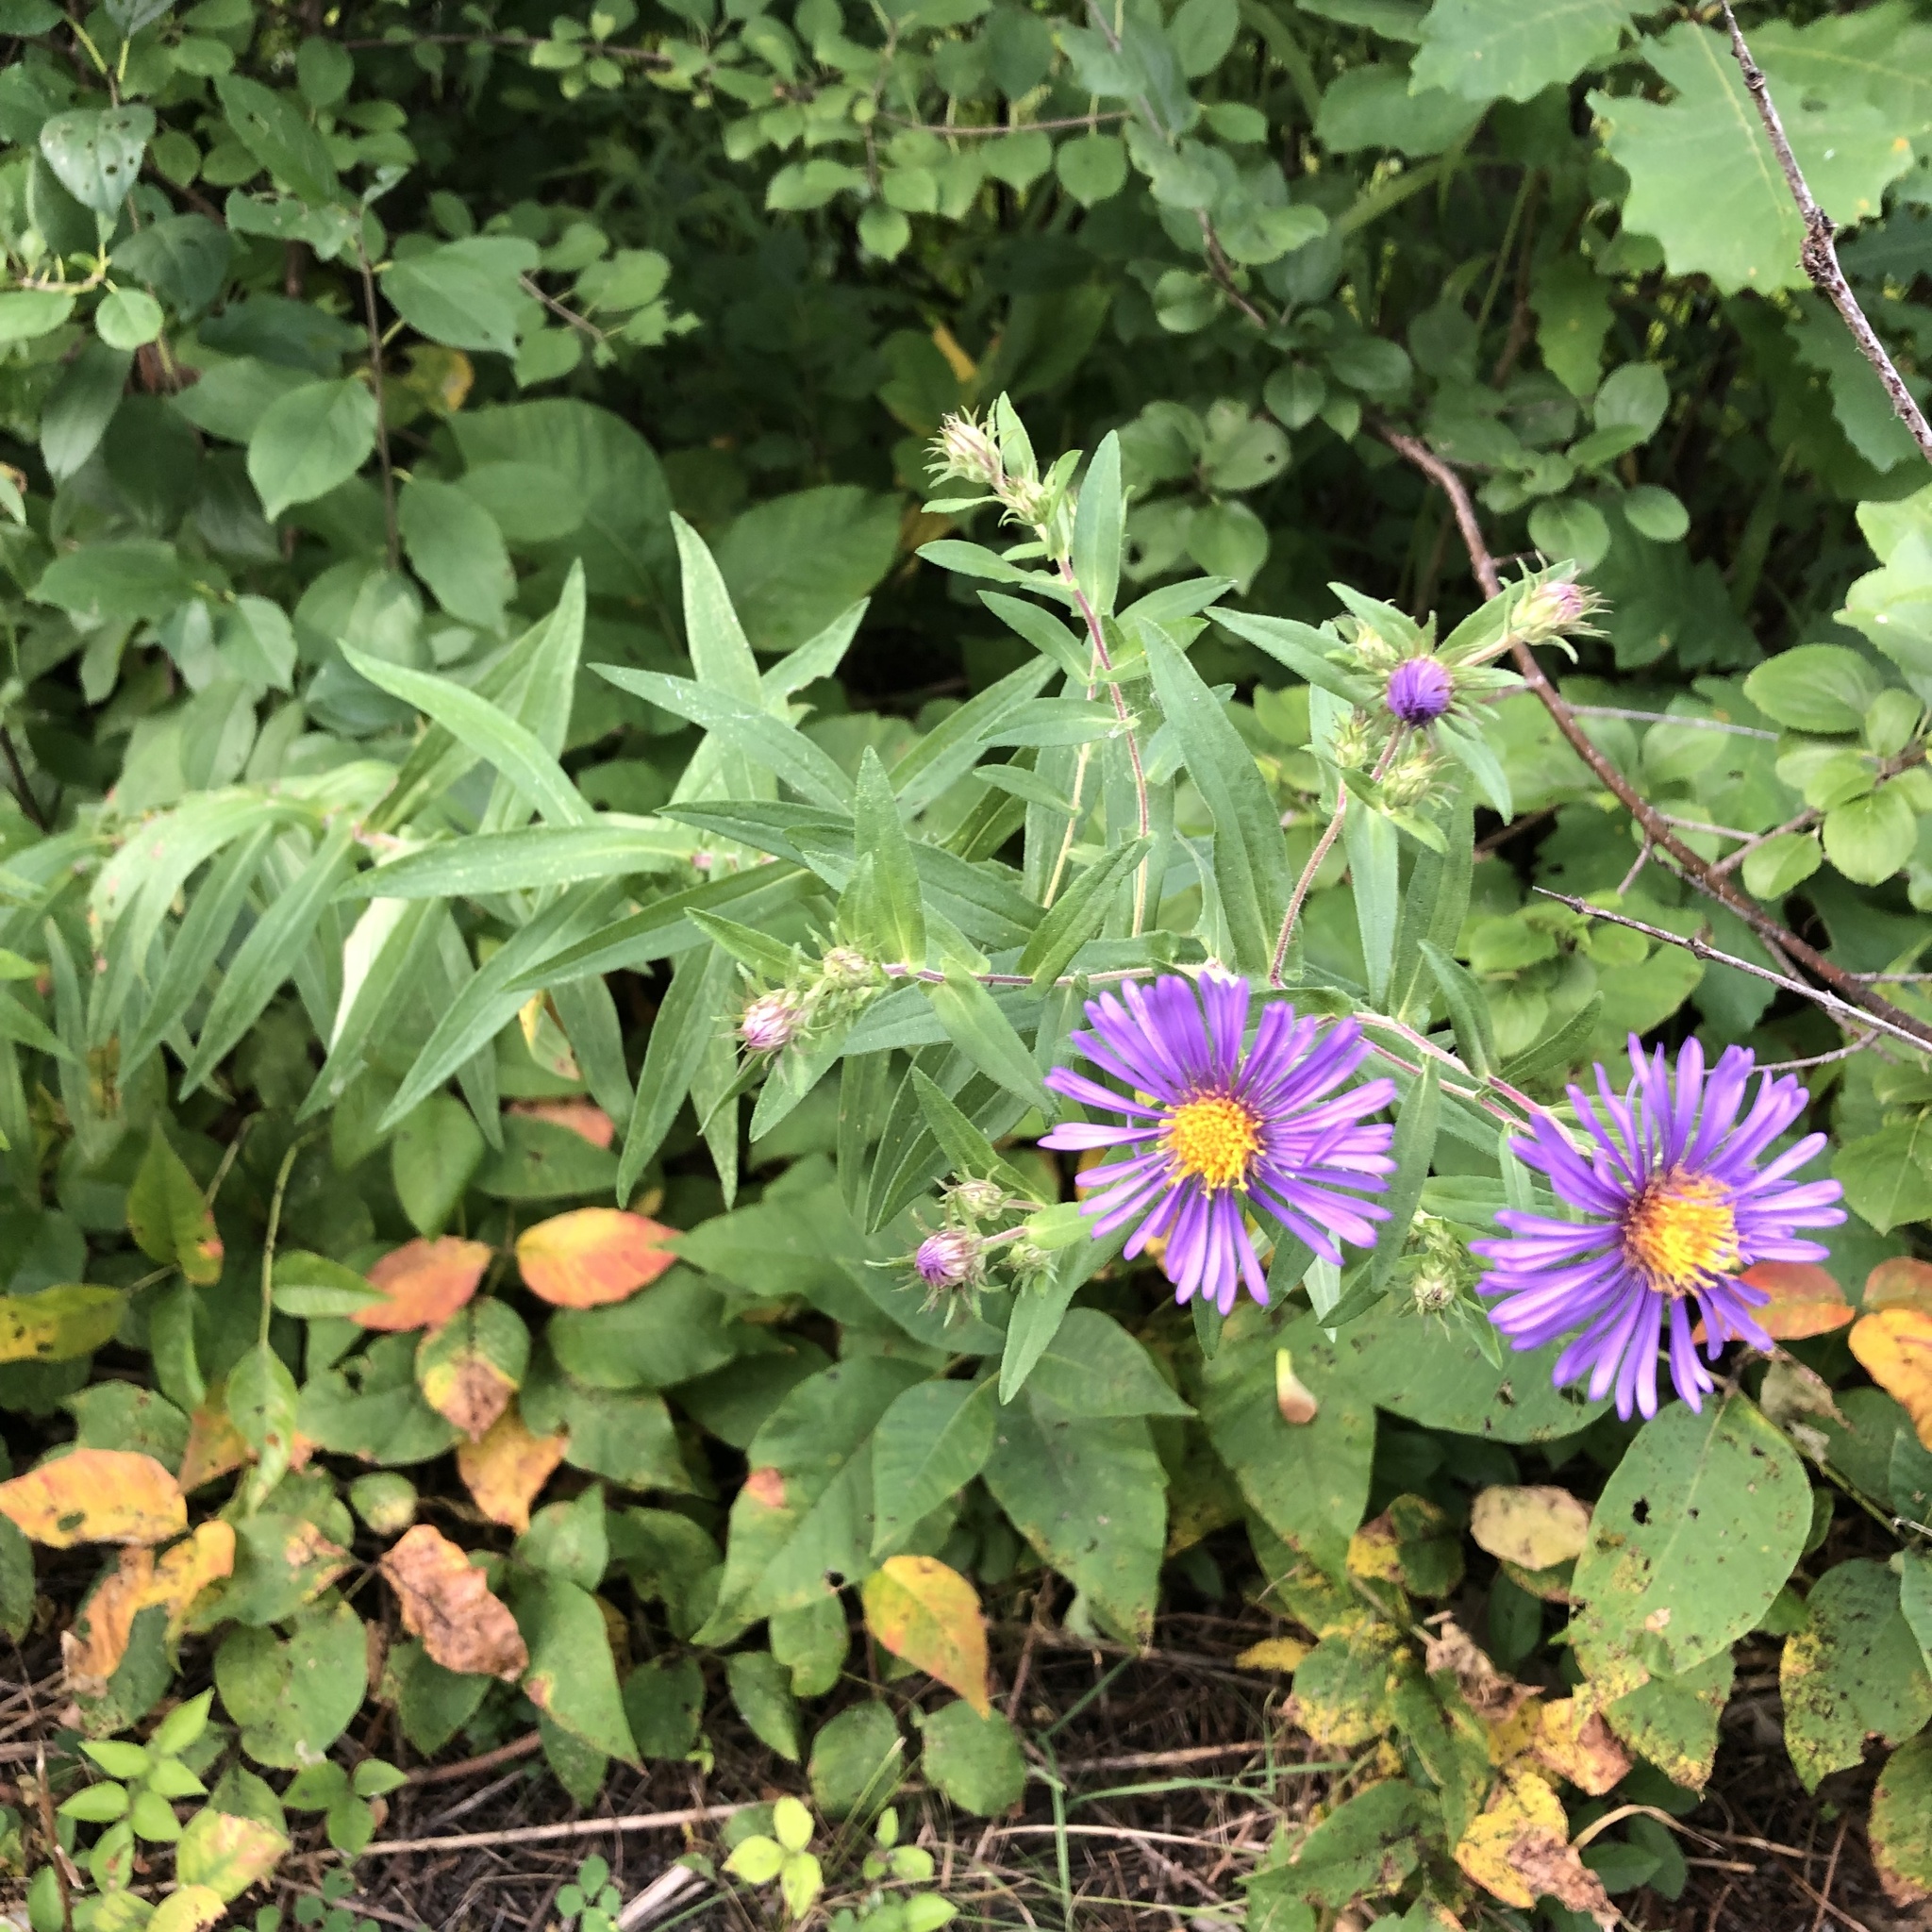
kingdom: Plantae
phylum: Tracheophyta
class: Magnoliopsida
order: Asterales
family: Asteraceae
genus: Symphyotrichum
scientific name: Symphyotrichum novae-angliae
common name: Michaelmas daisy
